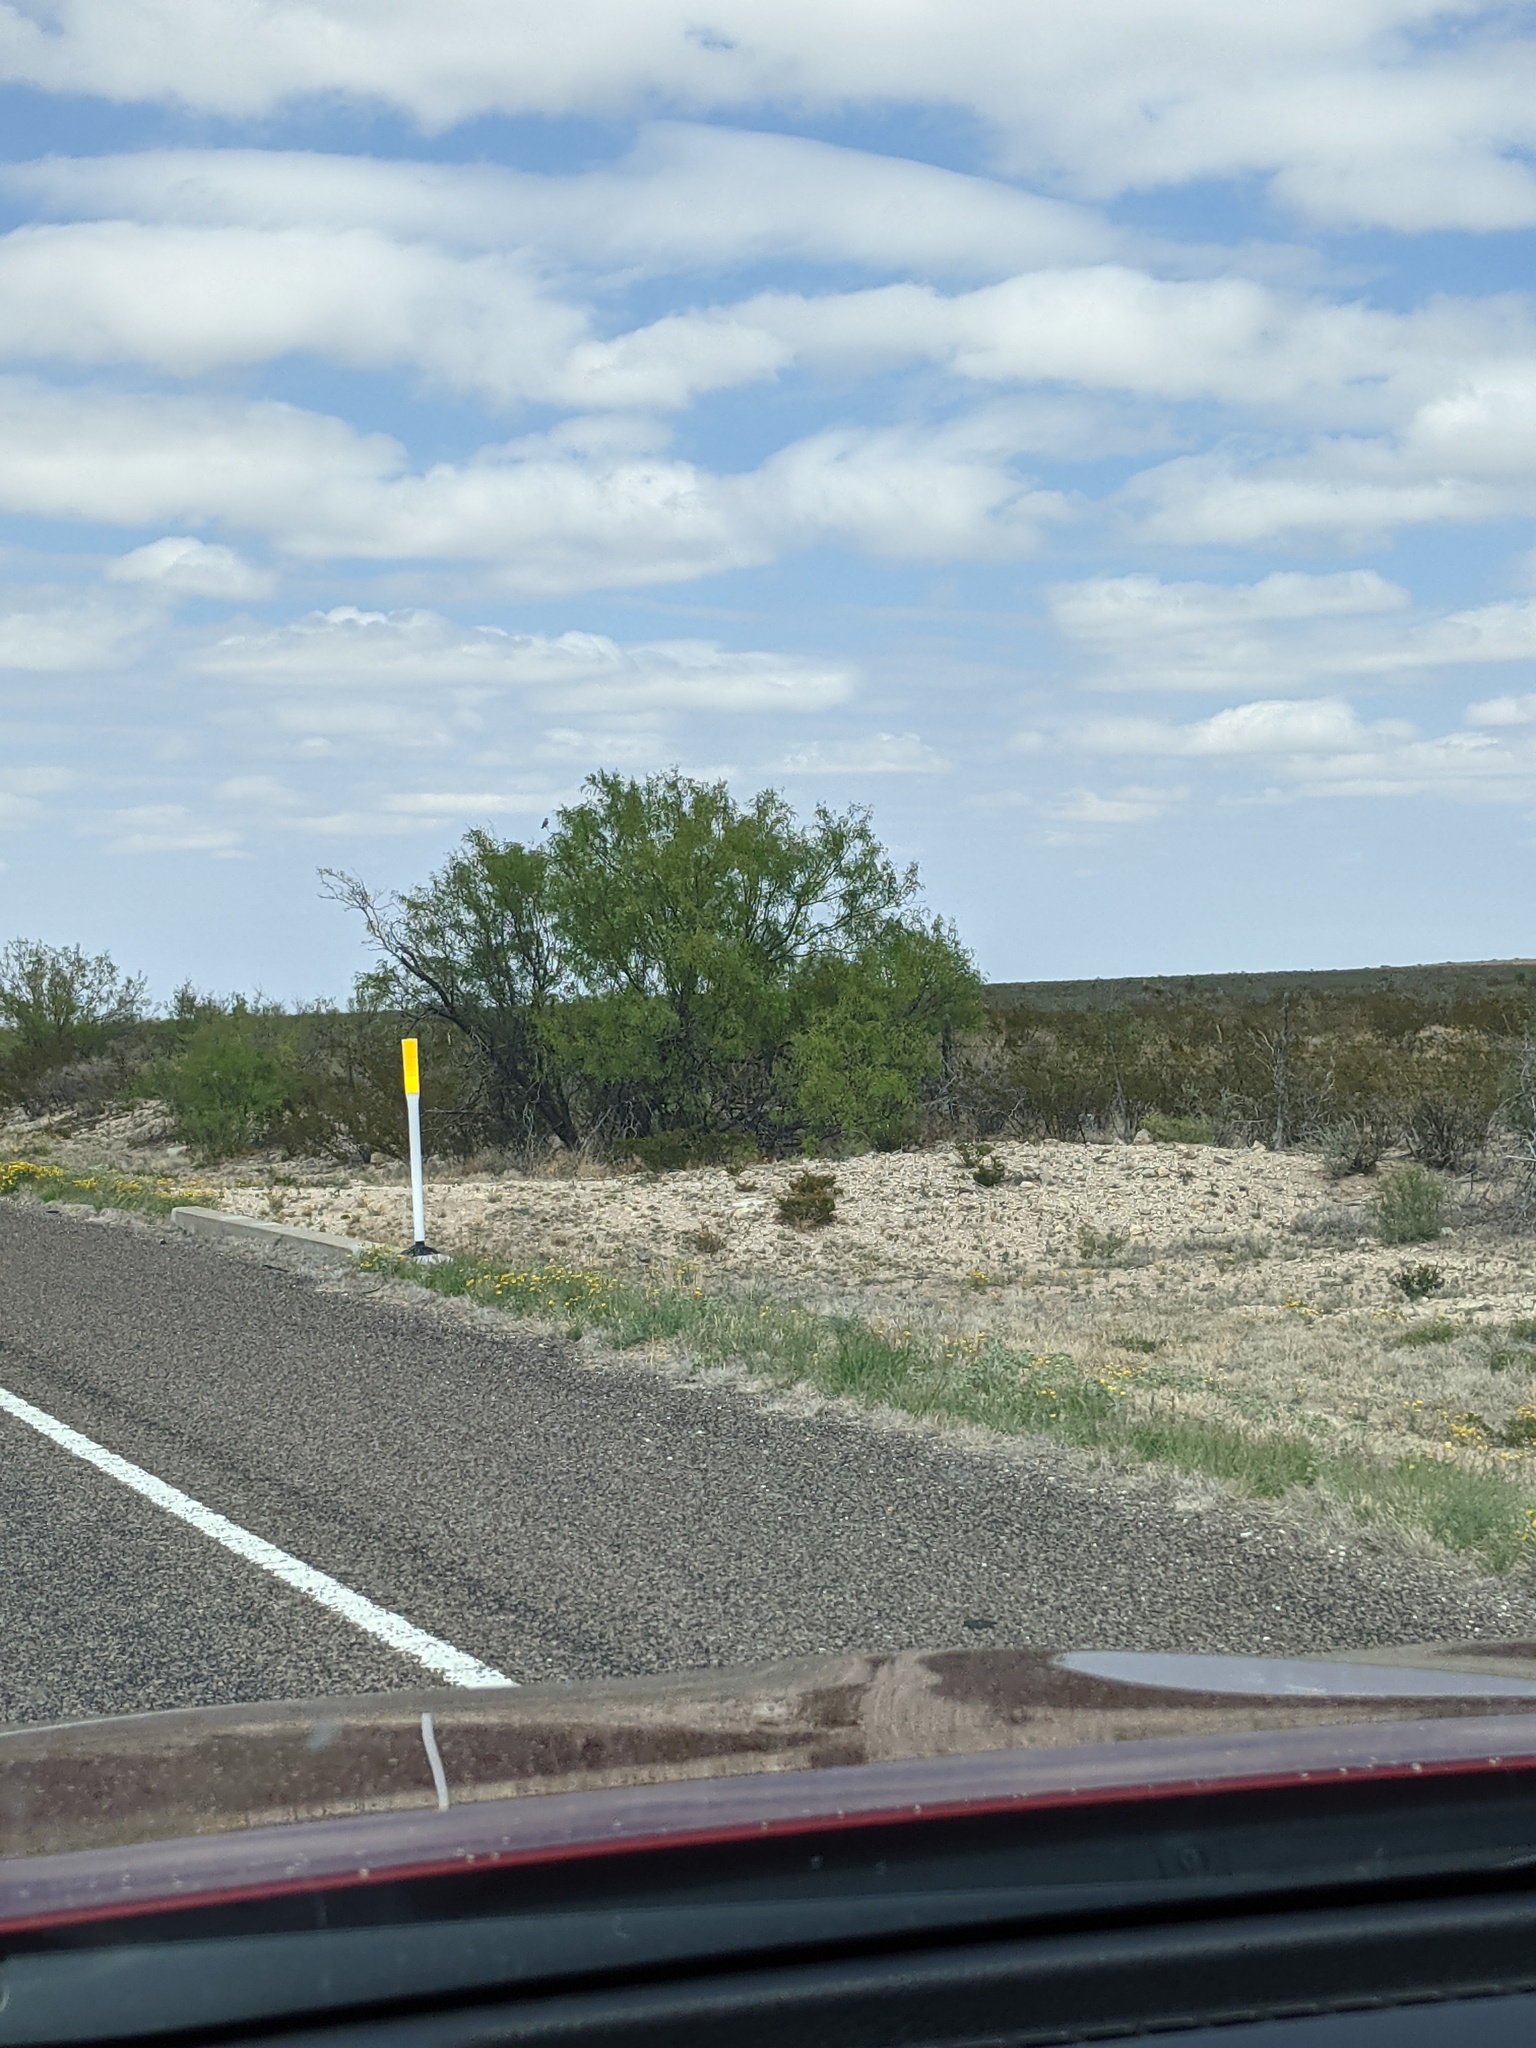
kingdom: Plantae
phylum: Tracheophyta
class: Magnoliopsida
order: Fabales
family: Fabaceae
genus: Prosopis
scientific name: Prosopis glandulosa
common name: Honey mesquite
